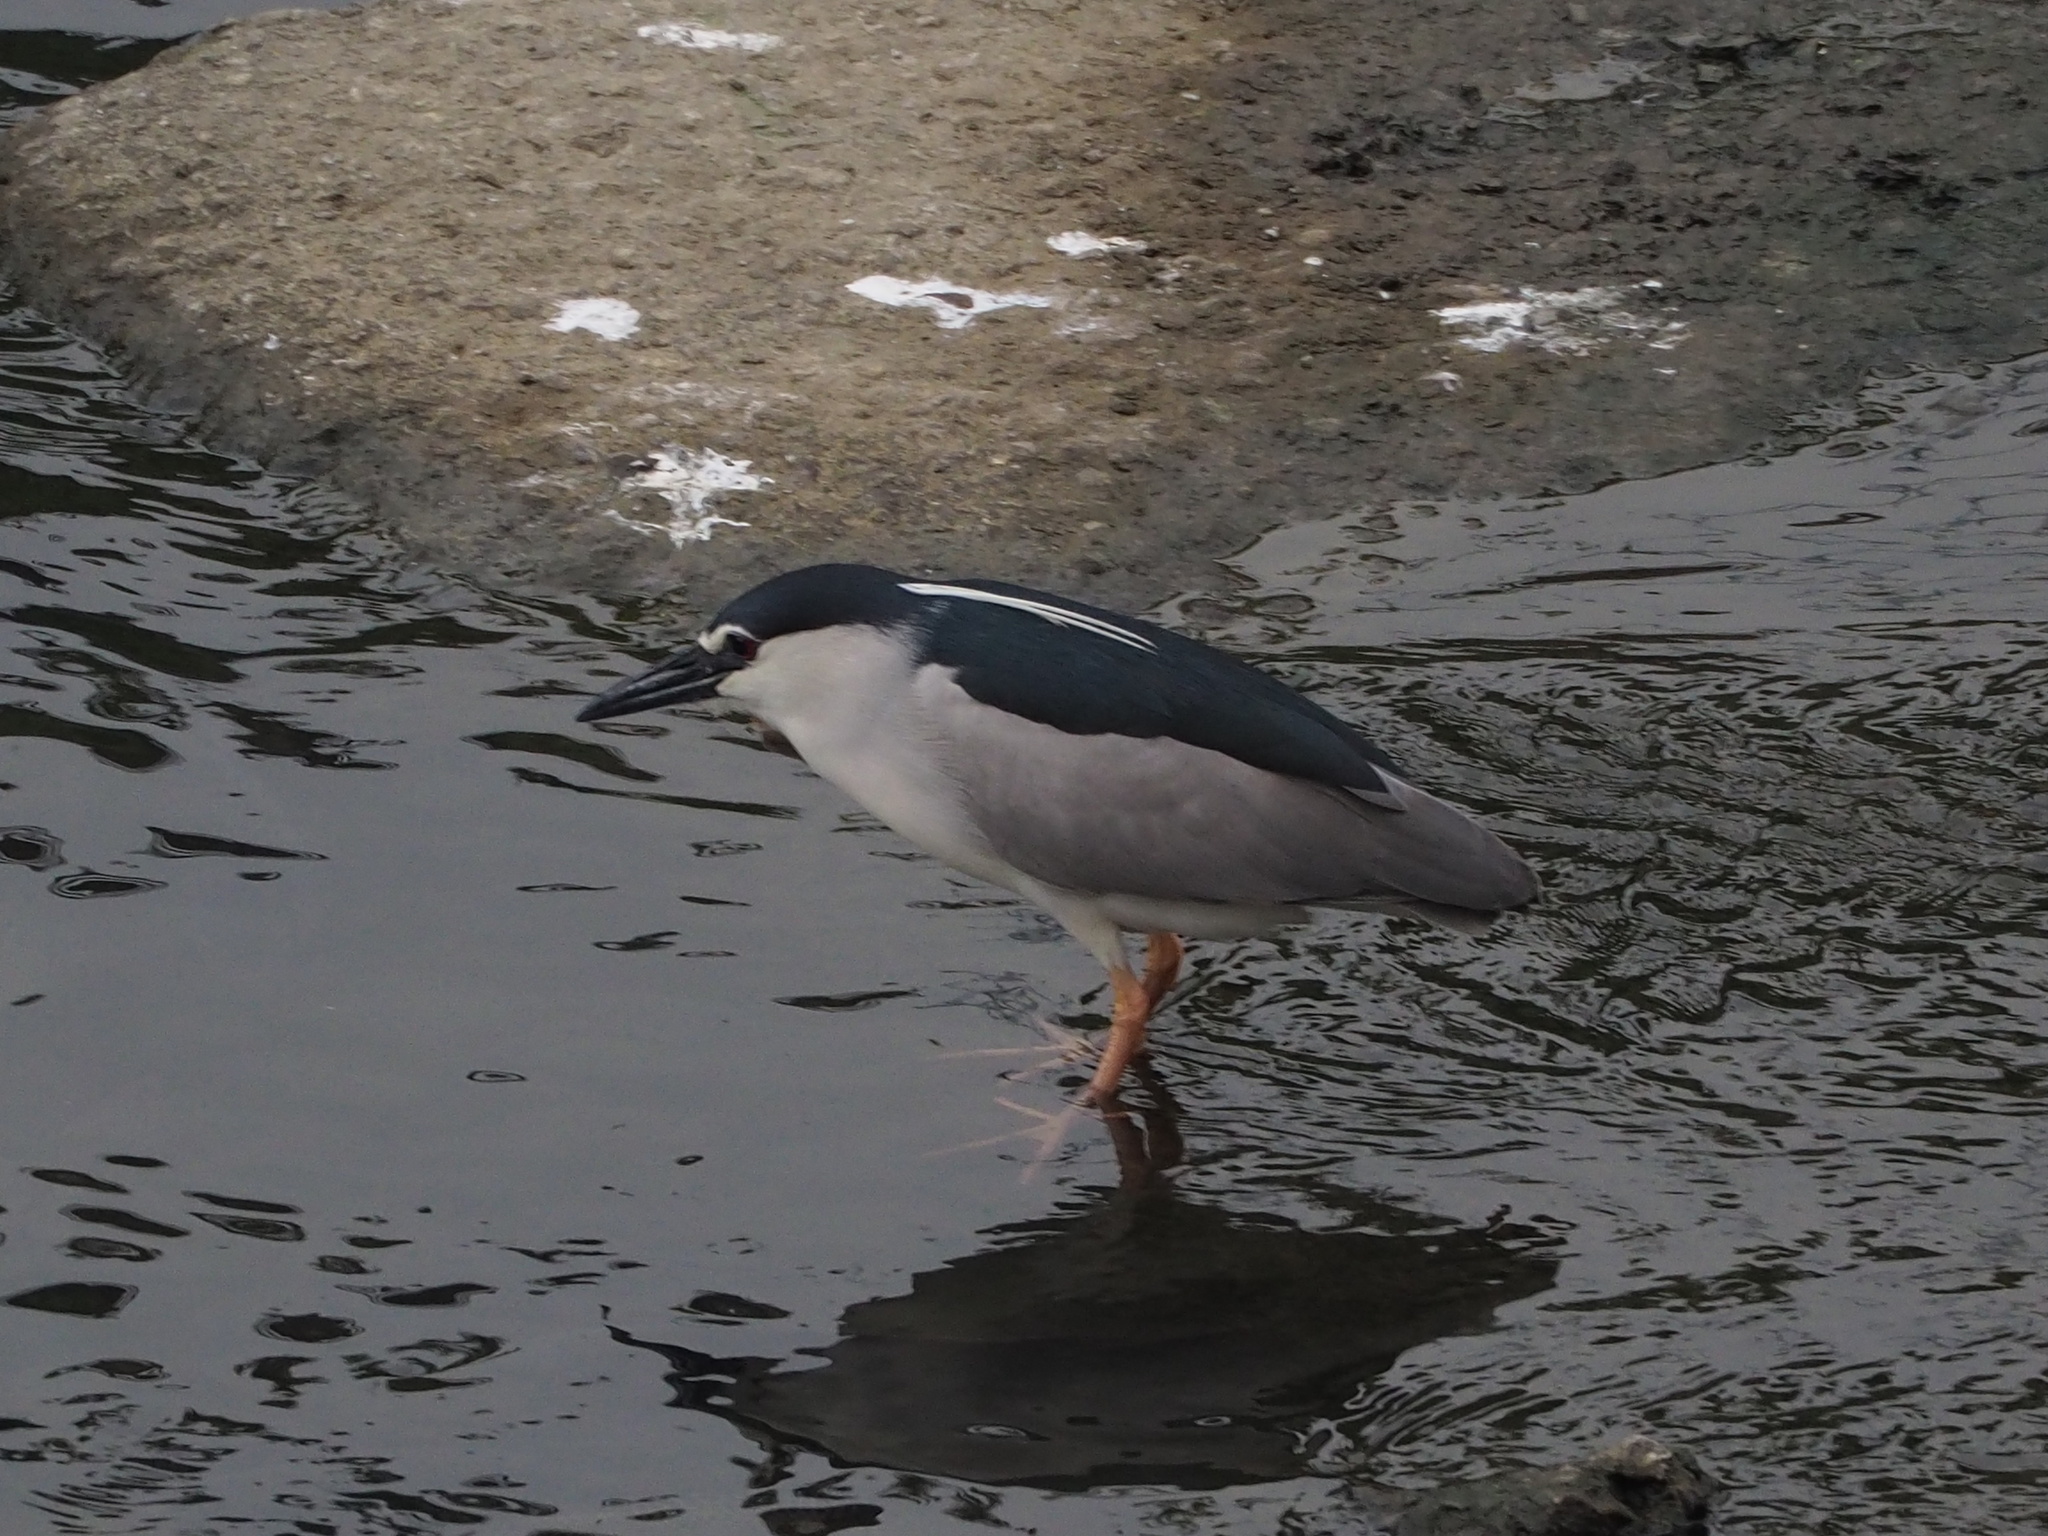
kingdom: Animalia
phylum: Chordata
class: Aves
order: Pelecaniformes
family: Ardeidae
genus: Nycticorax
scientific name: Nycticorax nycticorax
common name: Black-crowned night heron
